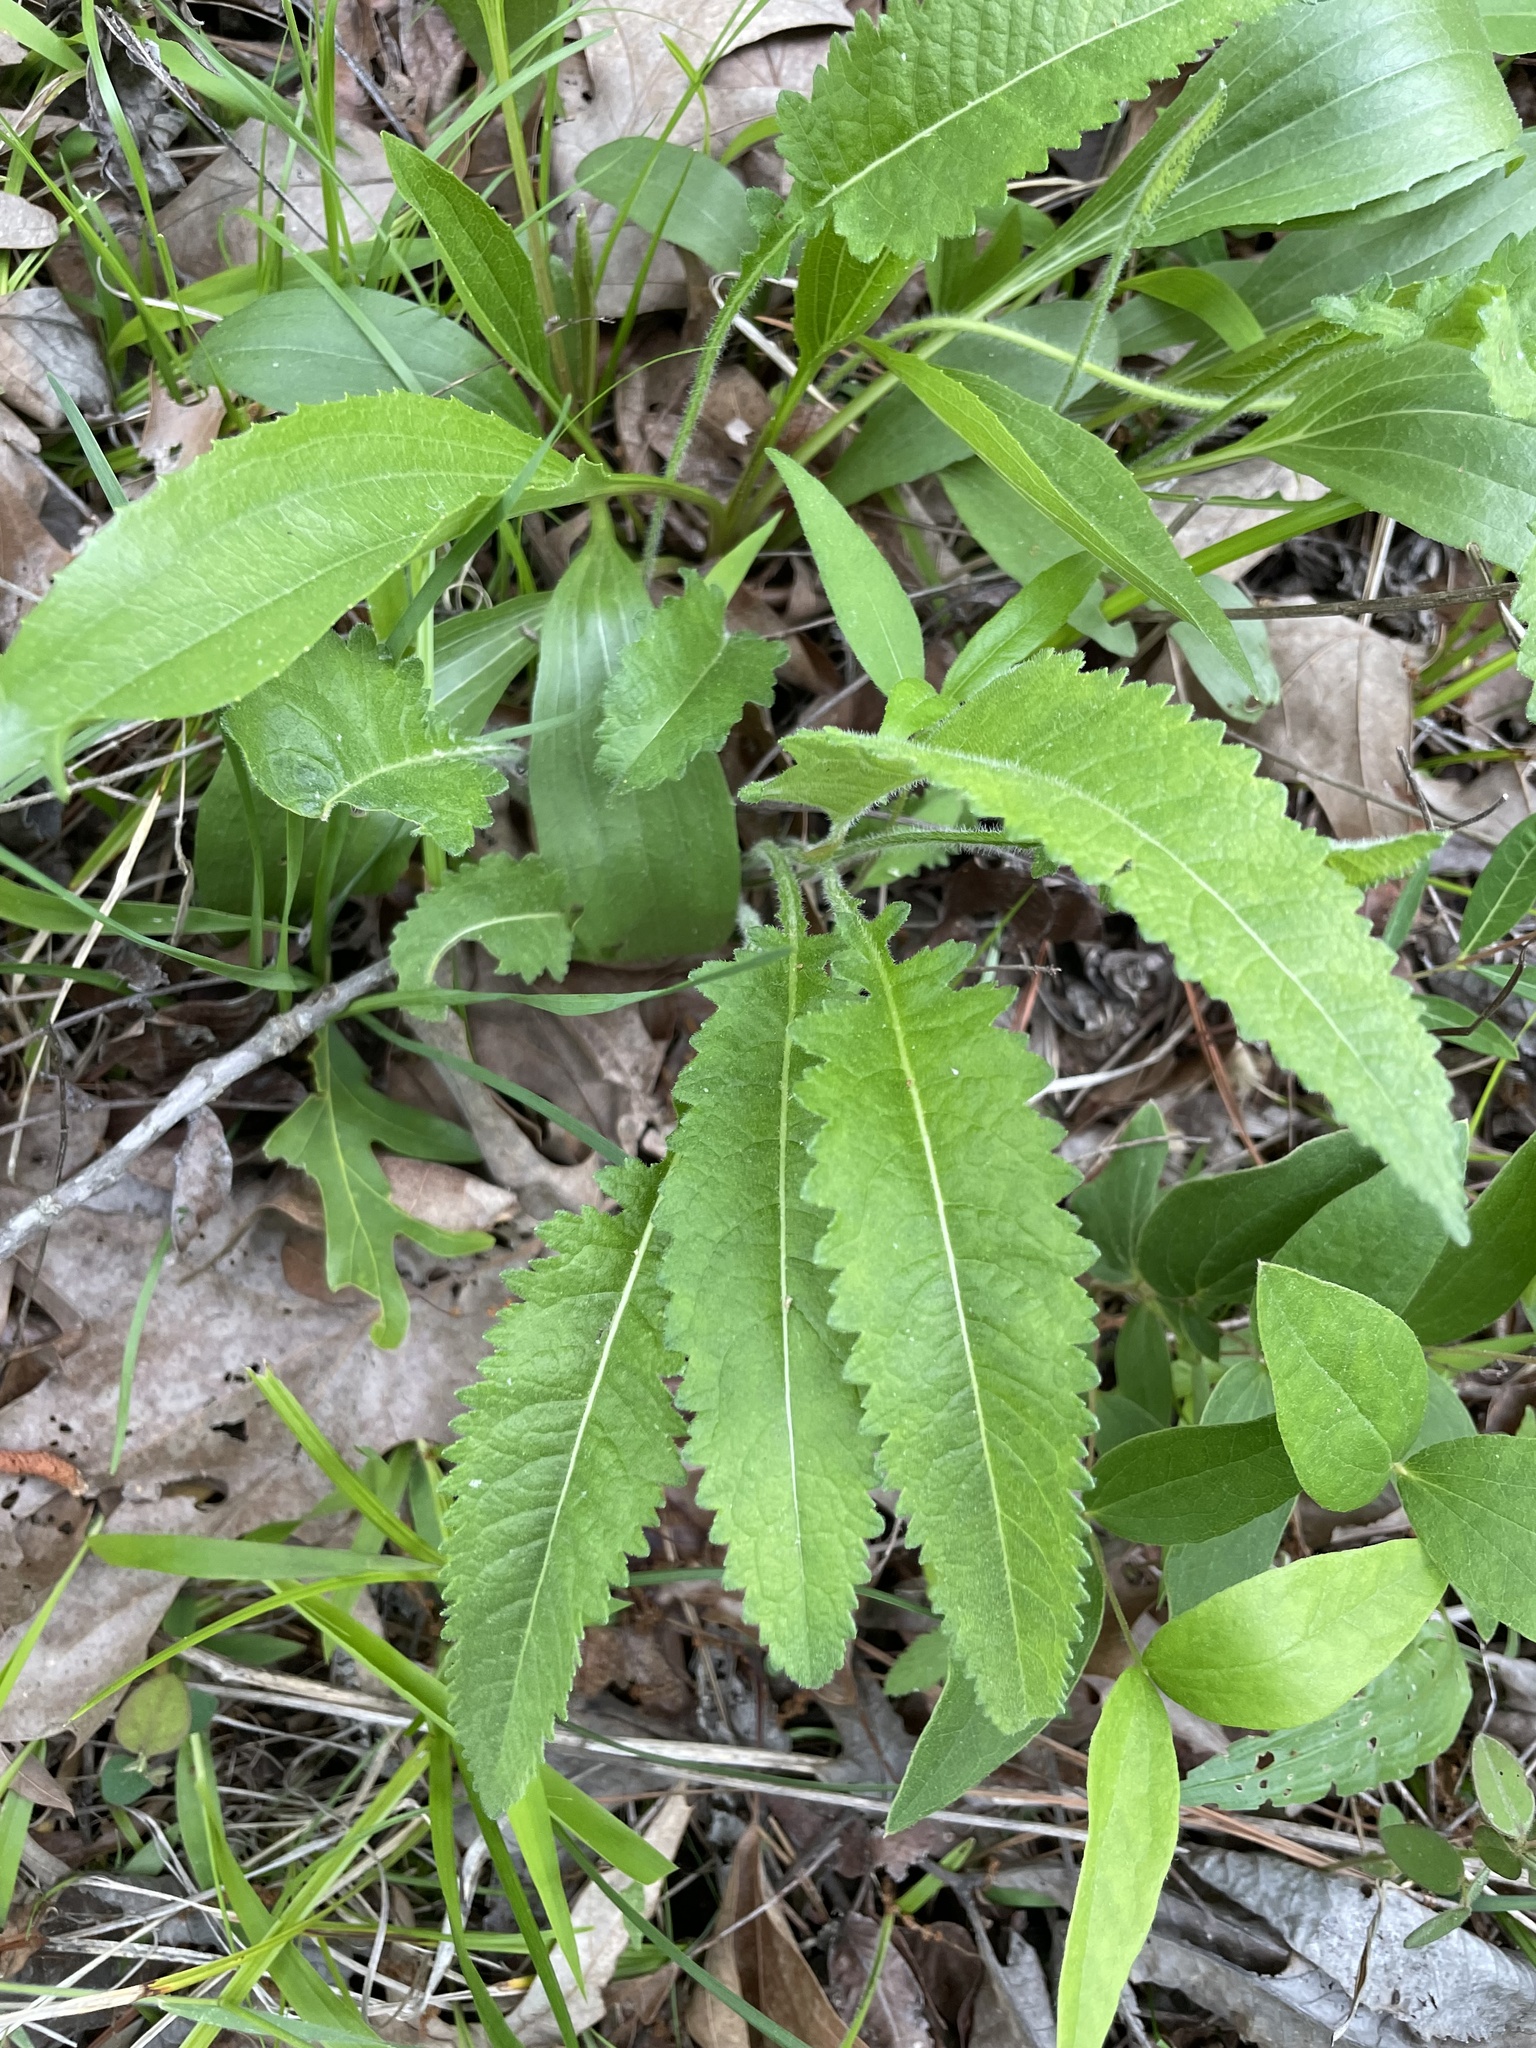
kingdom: Plantae
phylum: Tracheophyta
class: Magnoliopsida
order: Asterales
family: Asteraceae
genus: Parthenium
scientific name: Parthenium auriculatum
